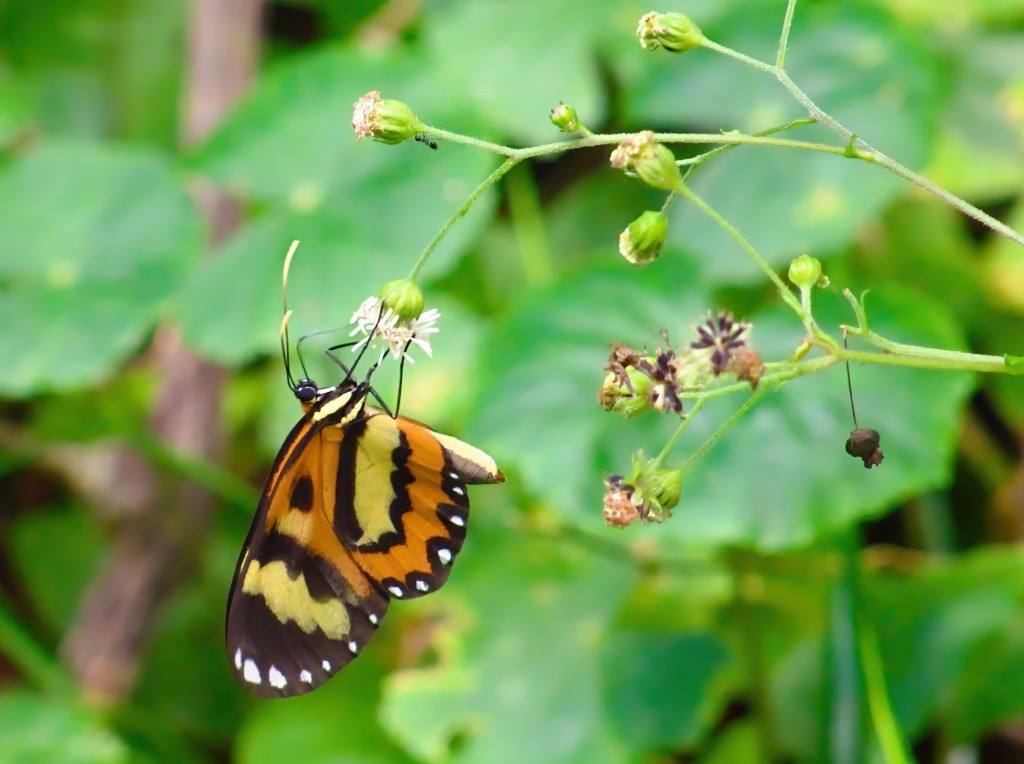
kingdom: Animalia
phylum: Arthropoda
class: Insecta
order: Lepidoptera
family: Nymphalidae
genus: Placidina
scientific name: Placidina euryanassa
